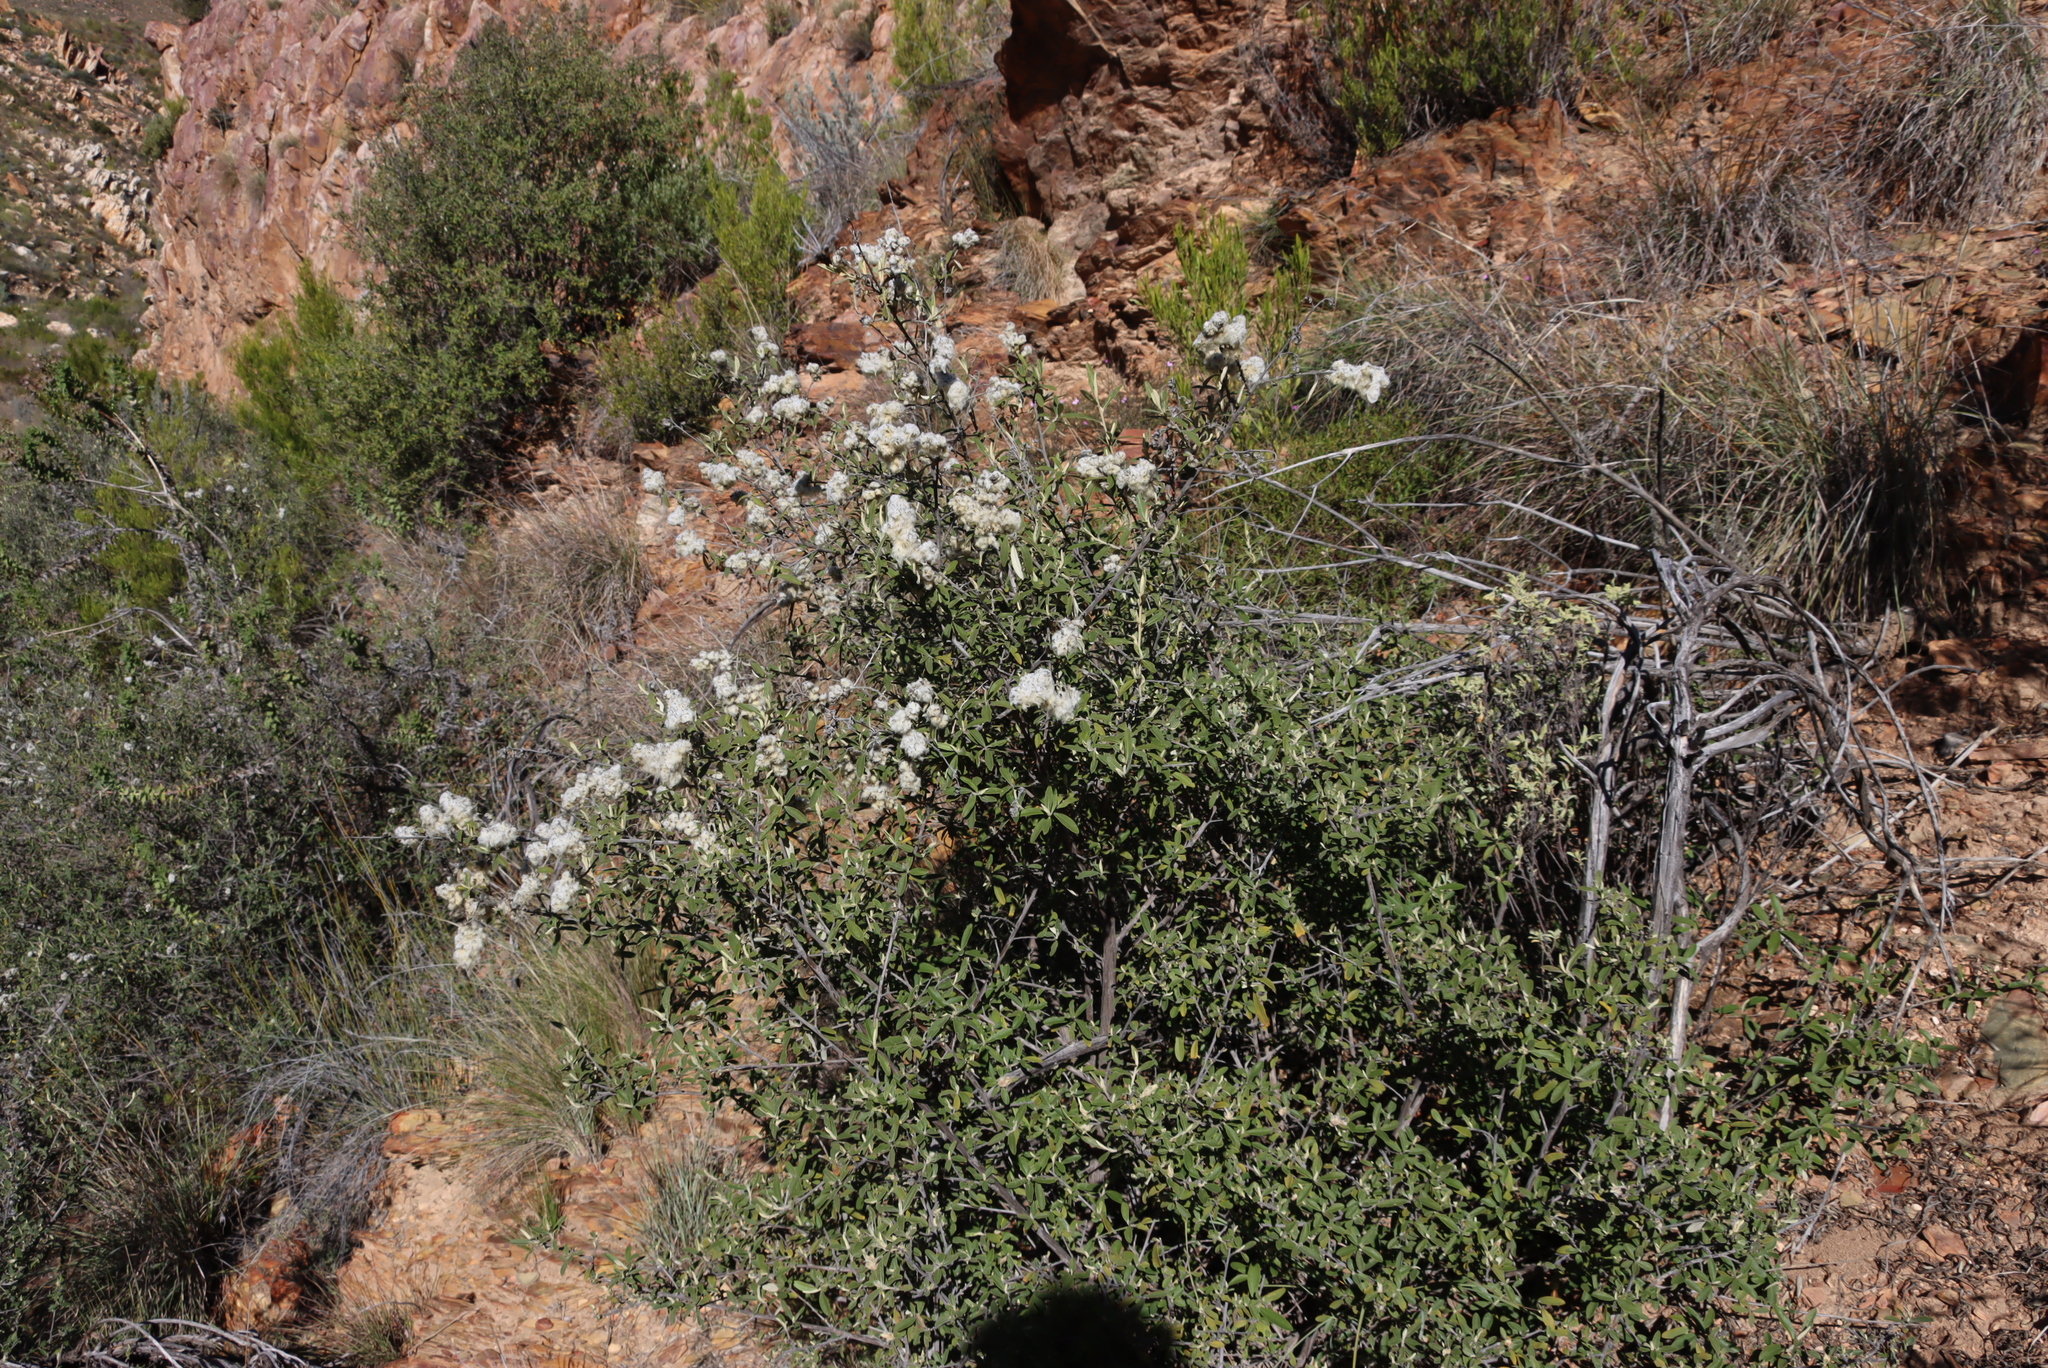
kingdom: Plantae
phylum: Tracheophyta
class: Magnoliopsida
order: Asterales
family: Asteraceae
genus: Tarchonanthus
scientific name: Tarchonanthus littoralis
